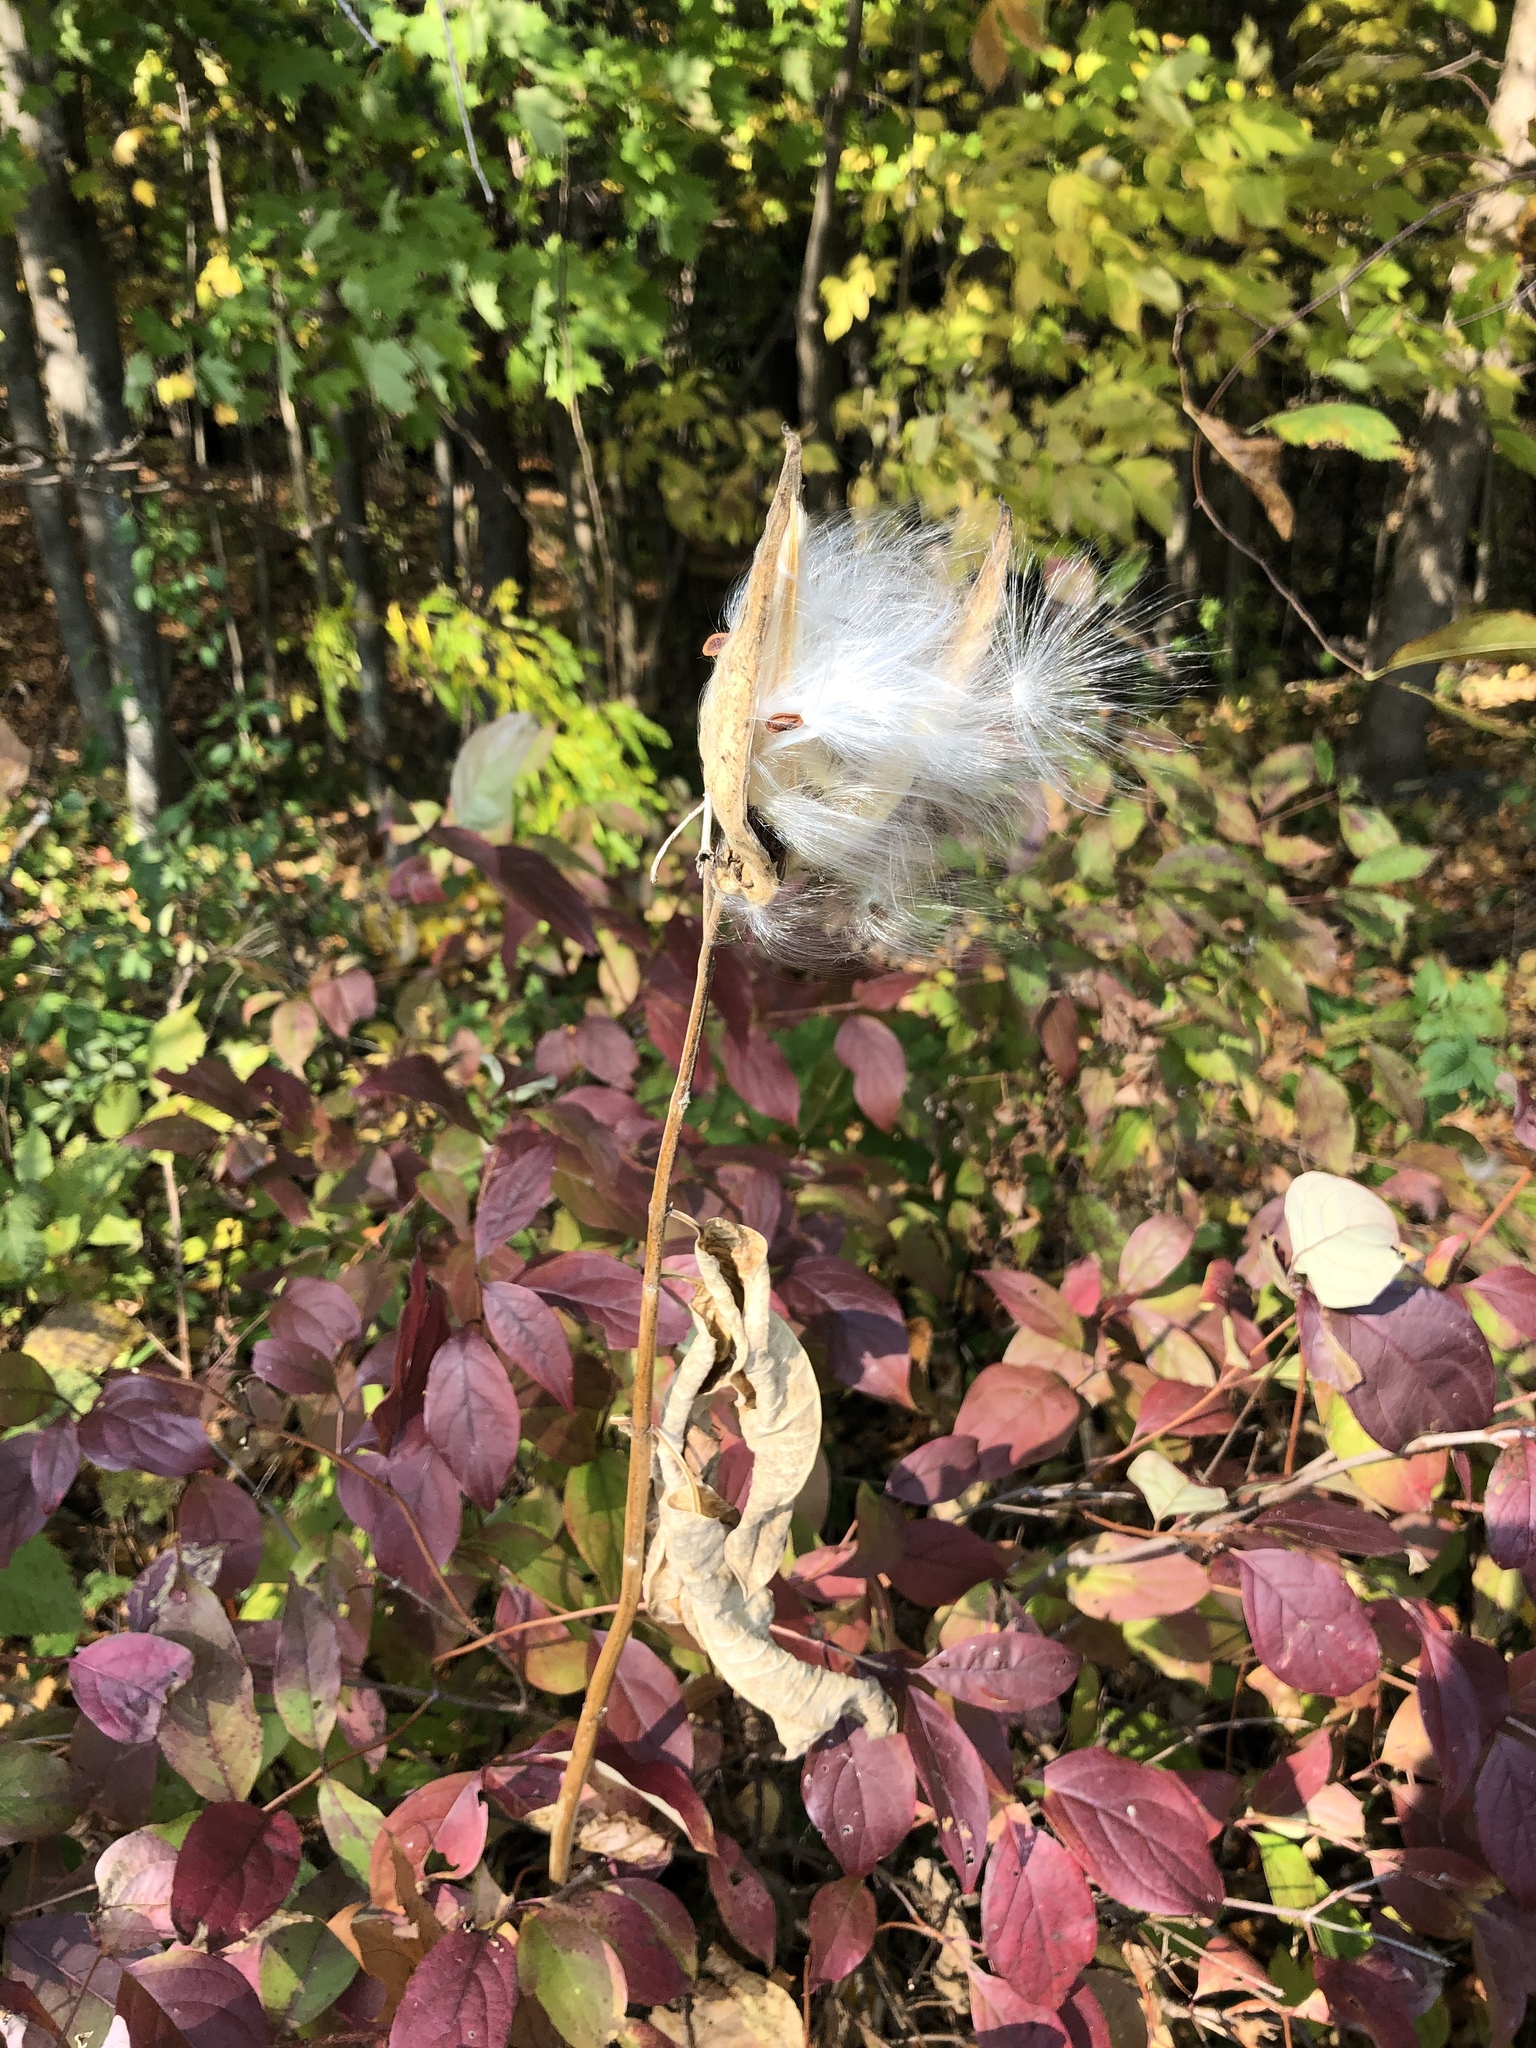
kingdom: Plantae
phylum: Tracheophyta
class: Magnoliopsida
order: Gentianales
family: Apocynaceae
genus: Asclepias
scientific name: Asclepias syriaca
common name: Common milkweed
